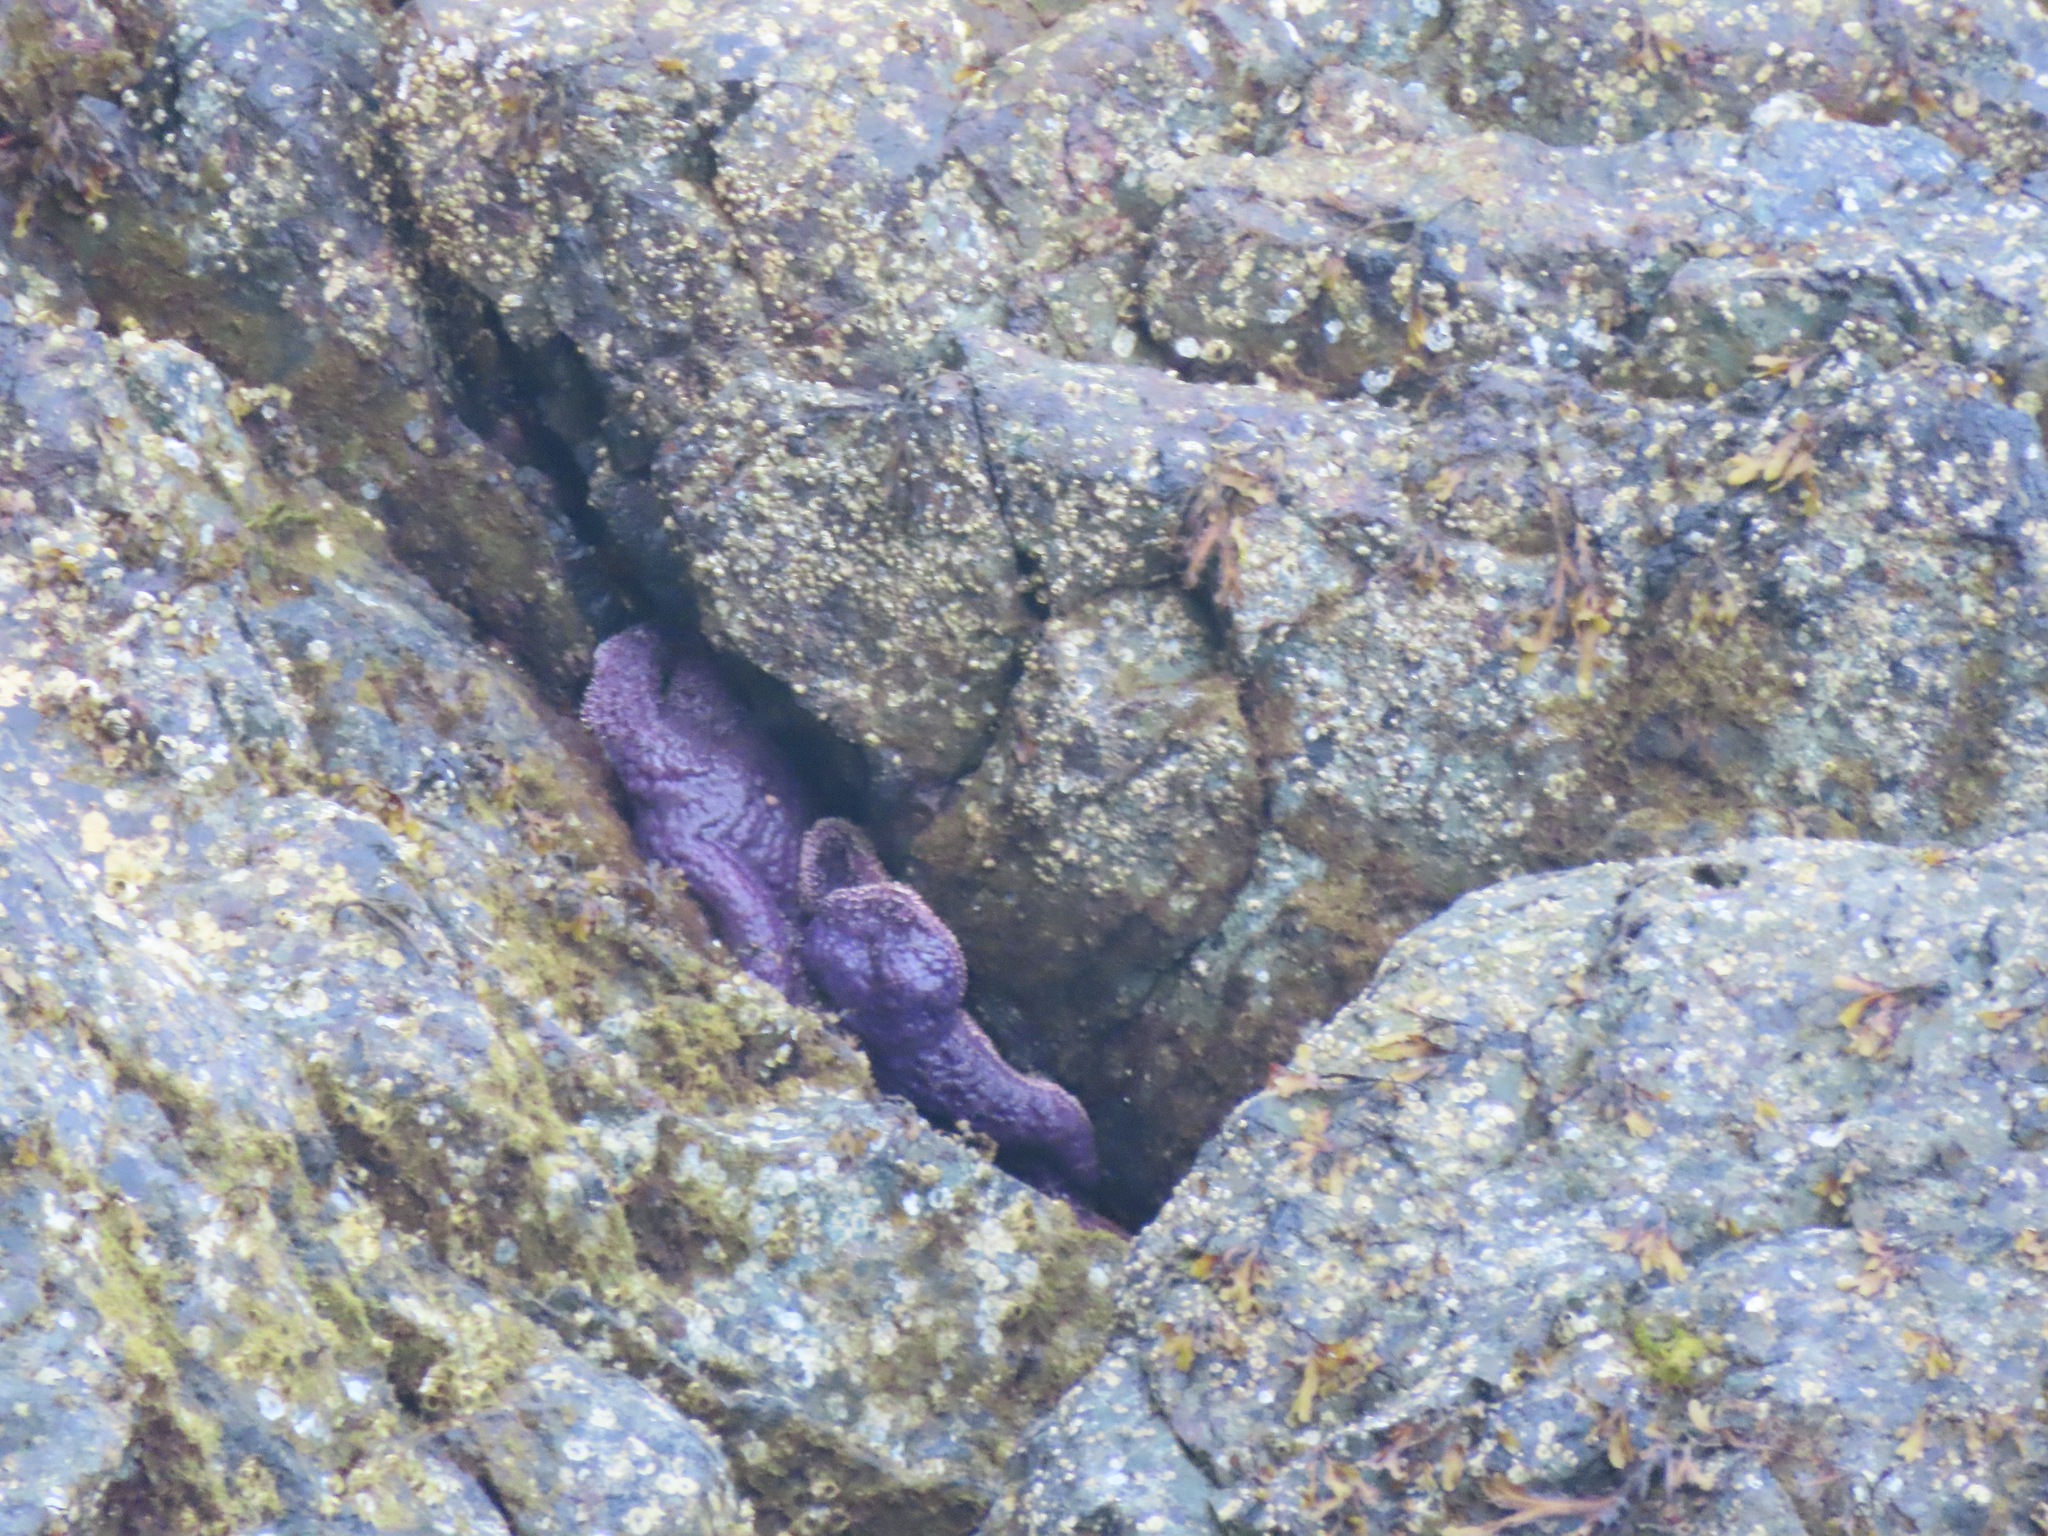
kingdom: Animalia
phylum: Echinodermata
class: Asteroidea
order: Forcipulatida
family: Asteriidae
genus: Pisaster
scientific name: Pisaster ochraceus
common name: Ochre stars
